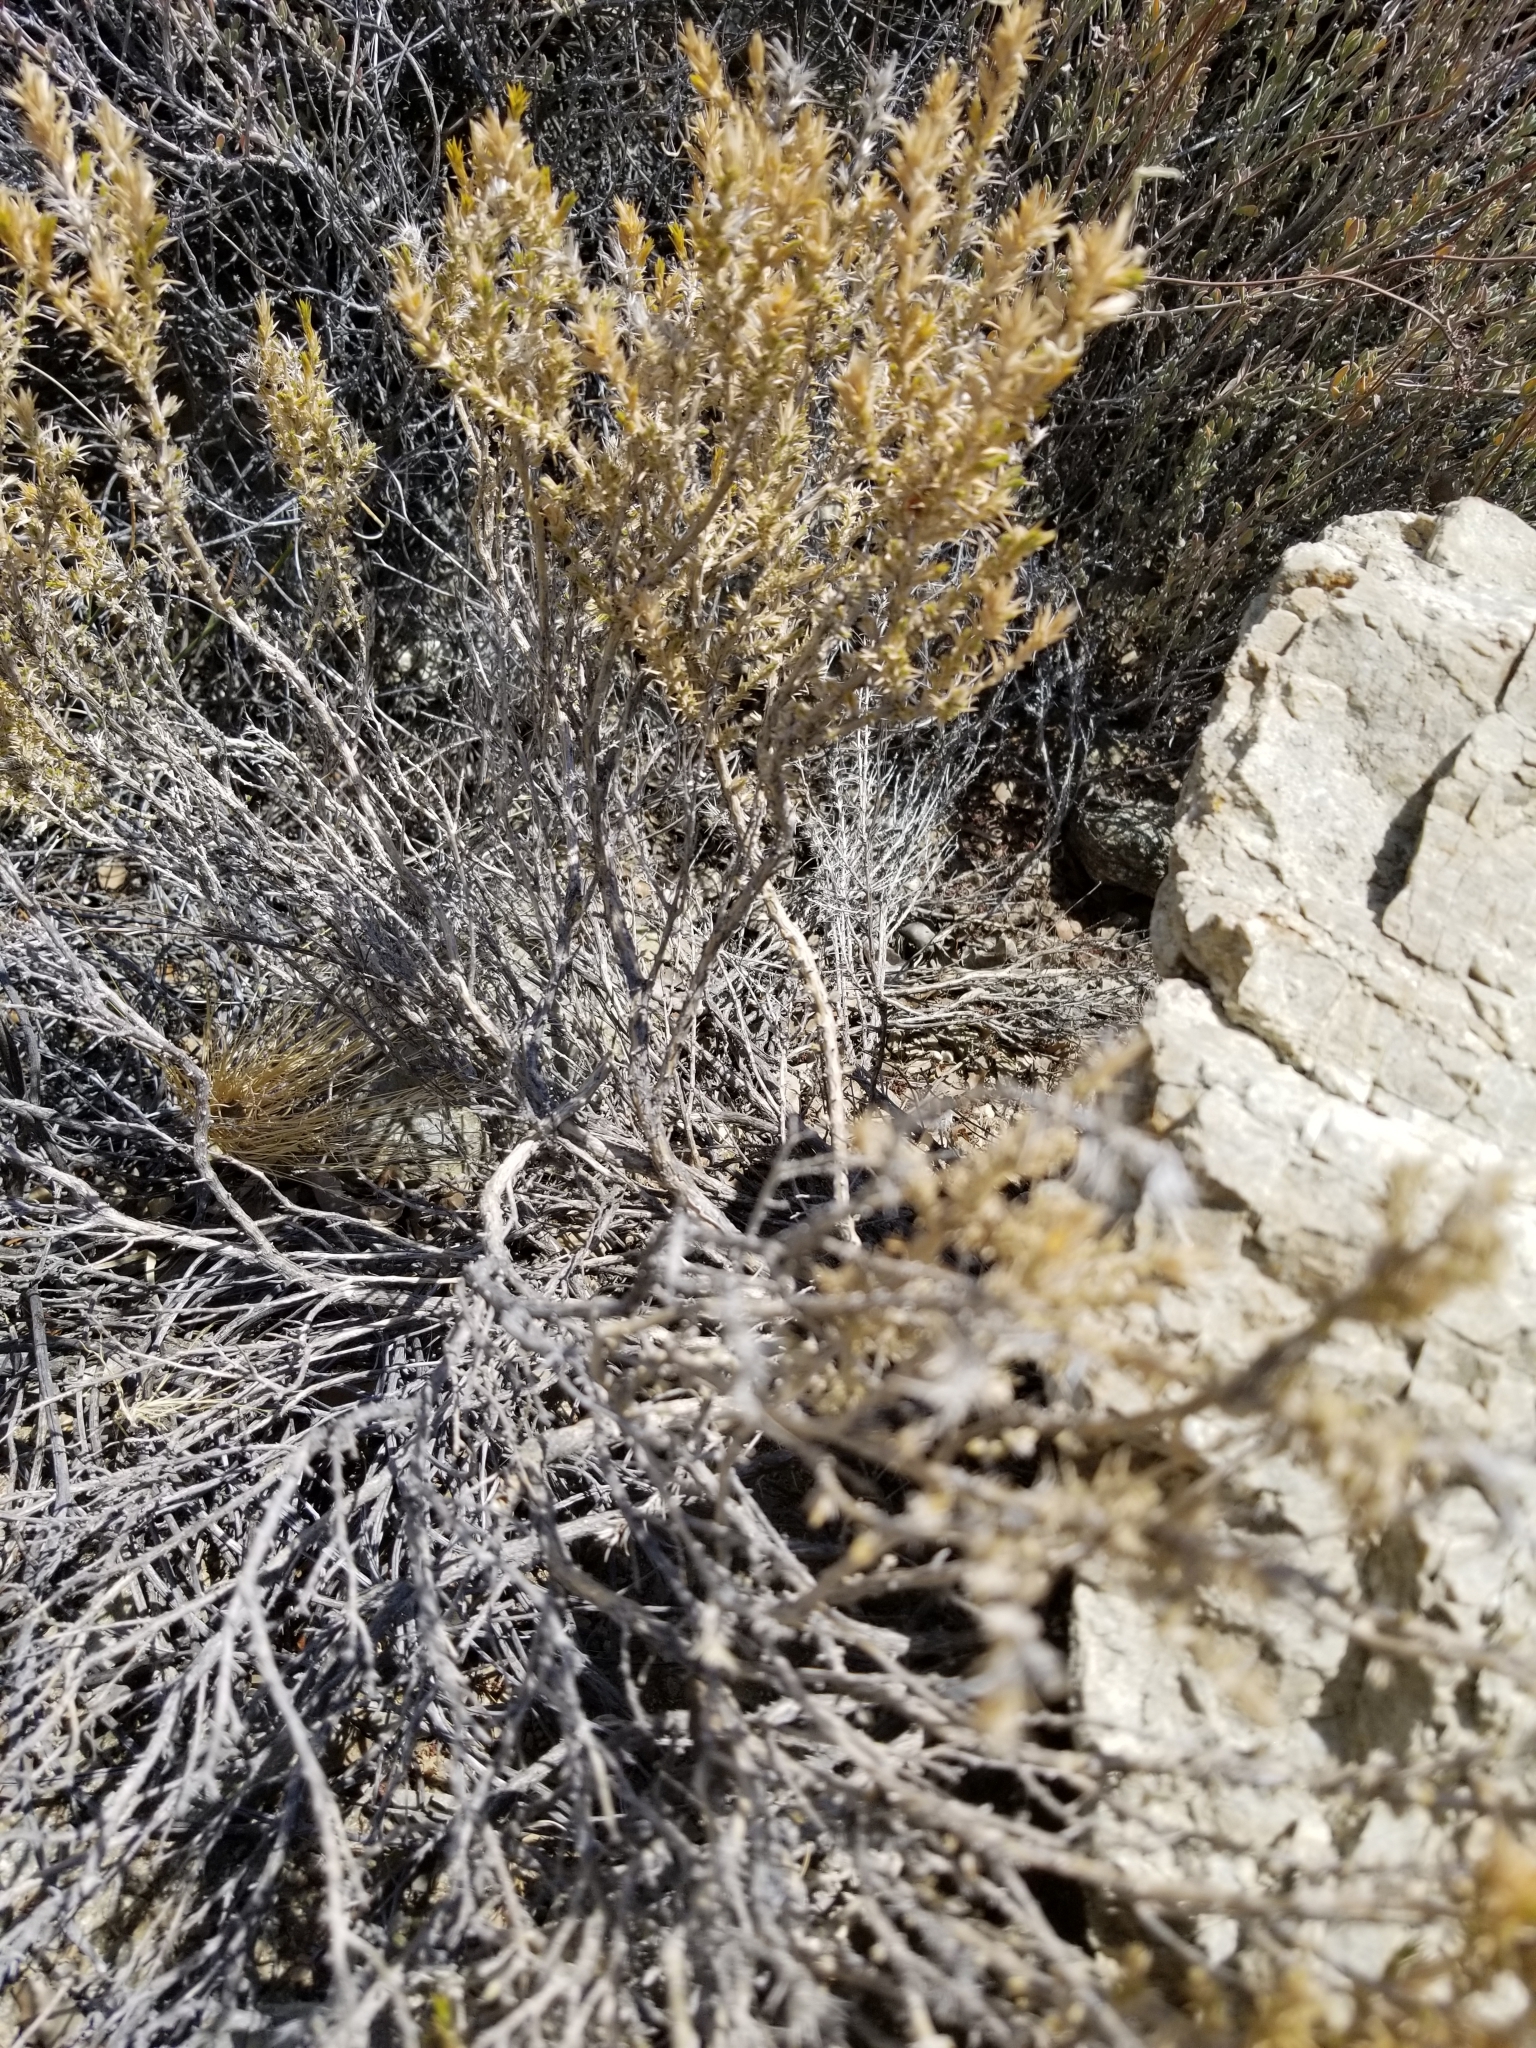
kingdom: Plantae
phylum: Tracheophyta
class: Magnoliopsida
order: Ericales
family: Polemoniaceae
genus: Linanthus
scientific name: Linanthus pungens
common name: Granite prickly phlox
